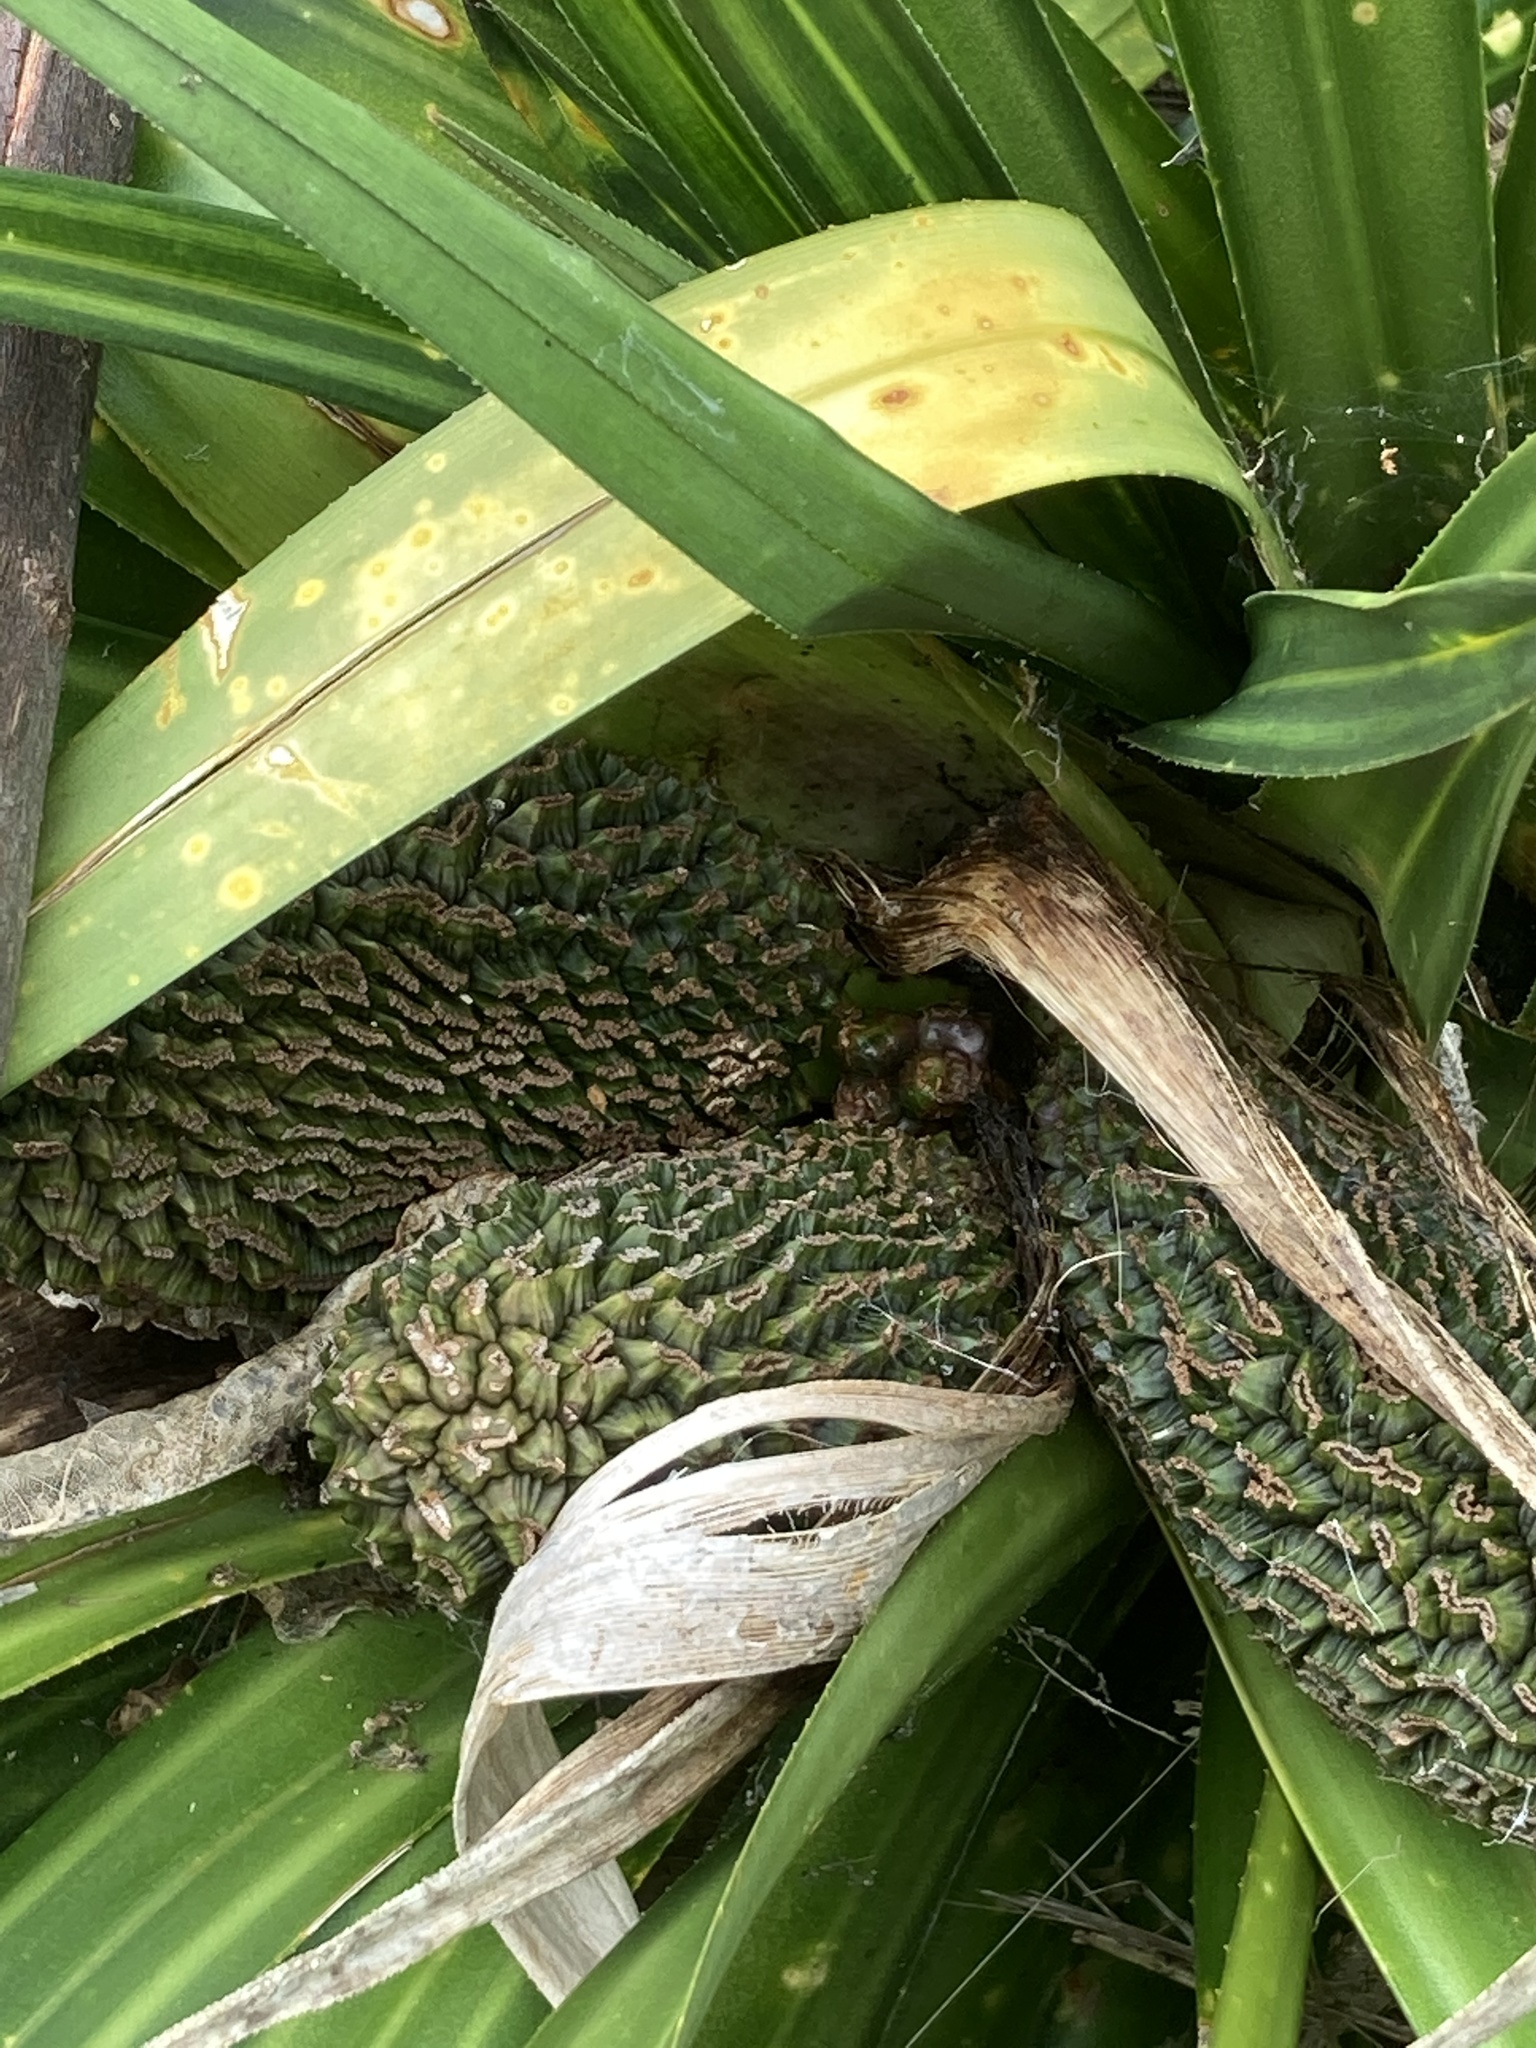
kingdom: Plantae
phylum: Tracheophyta
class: Liliopsida
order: Pandanales
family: Pandanaceae
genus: Freycinetia
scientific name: Freycinetia banksii
